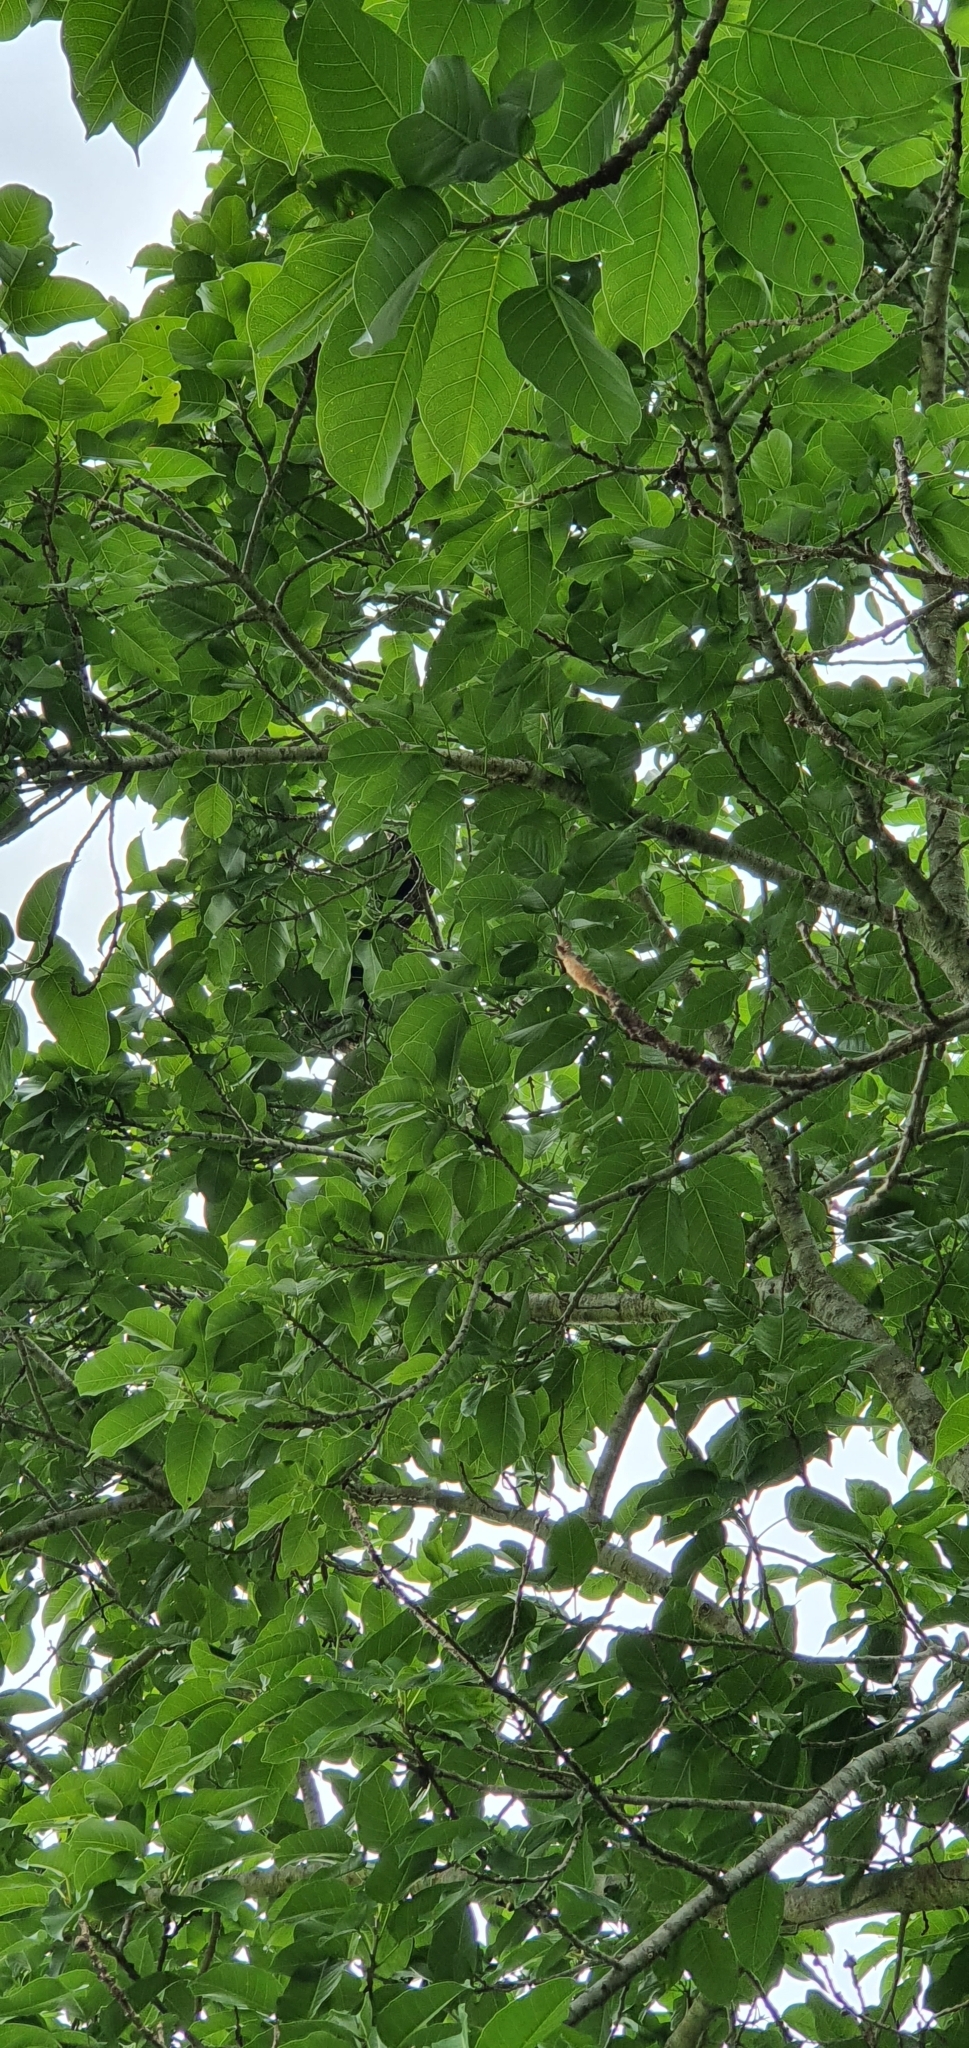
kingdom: Animalia
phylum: Chordata
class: Aves
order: Cuculiformes
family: Cuculidae
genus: Centropus
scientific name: Centropus phasianinus
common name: Pheasant coucal
